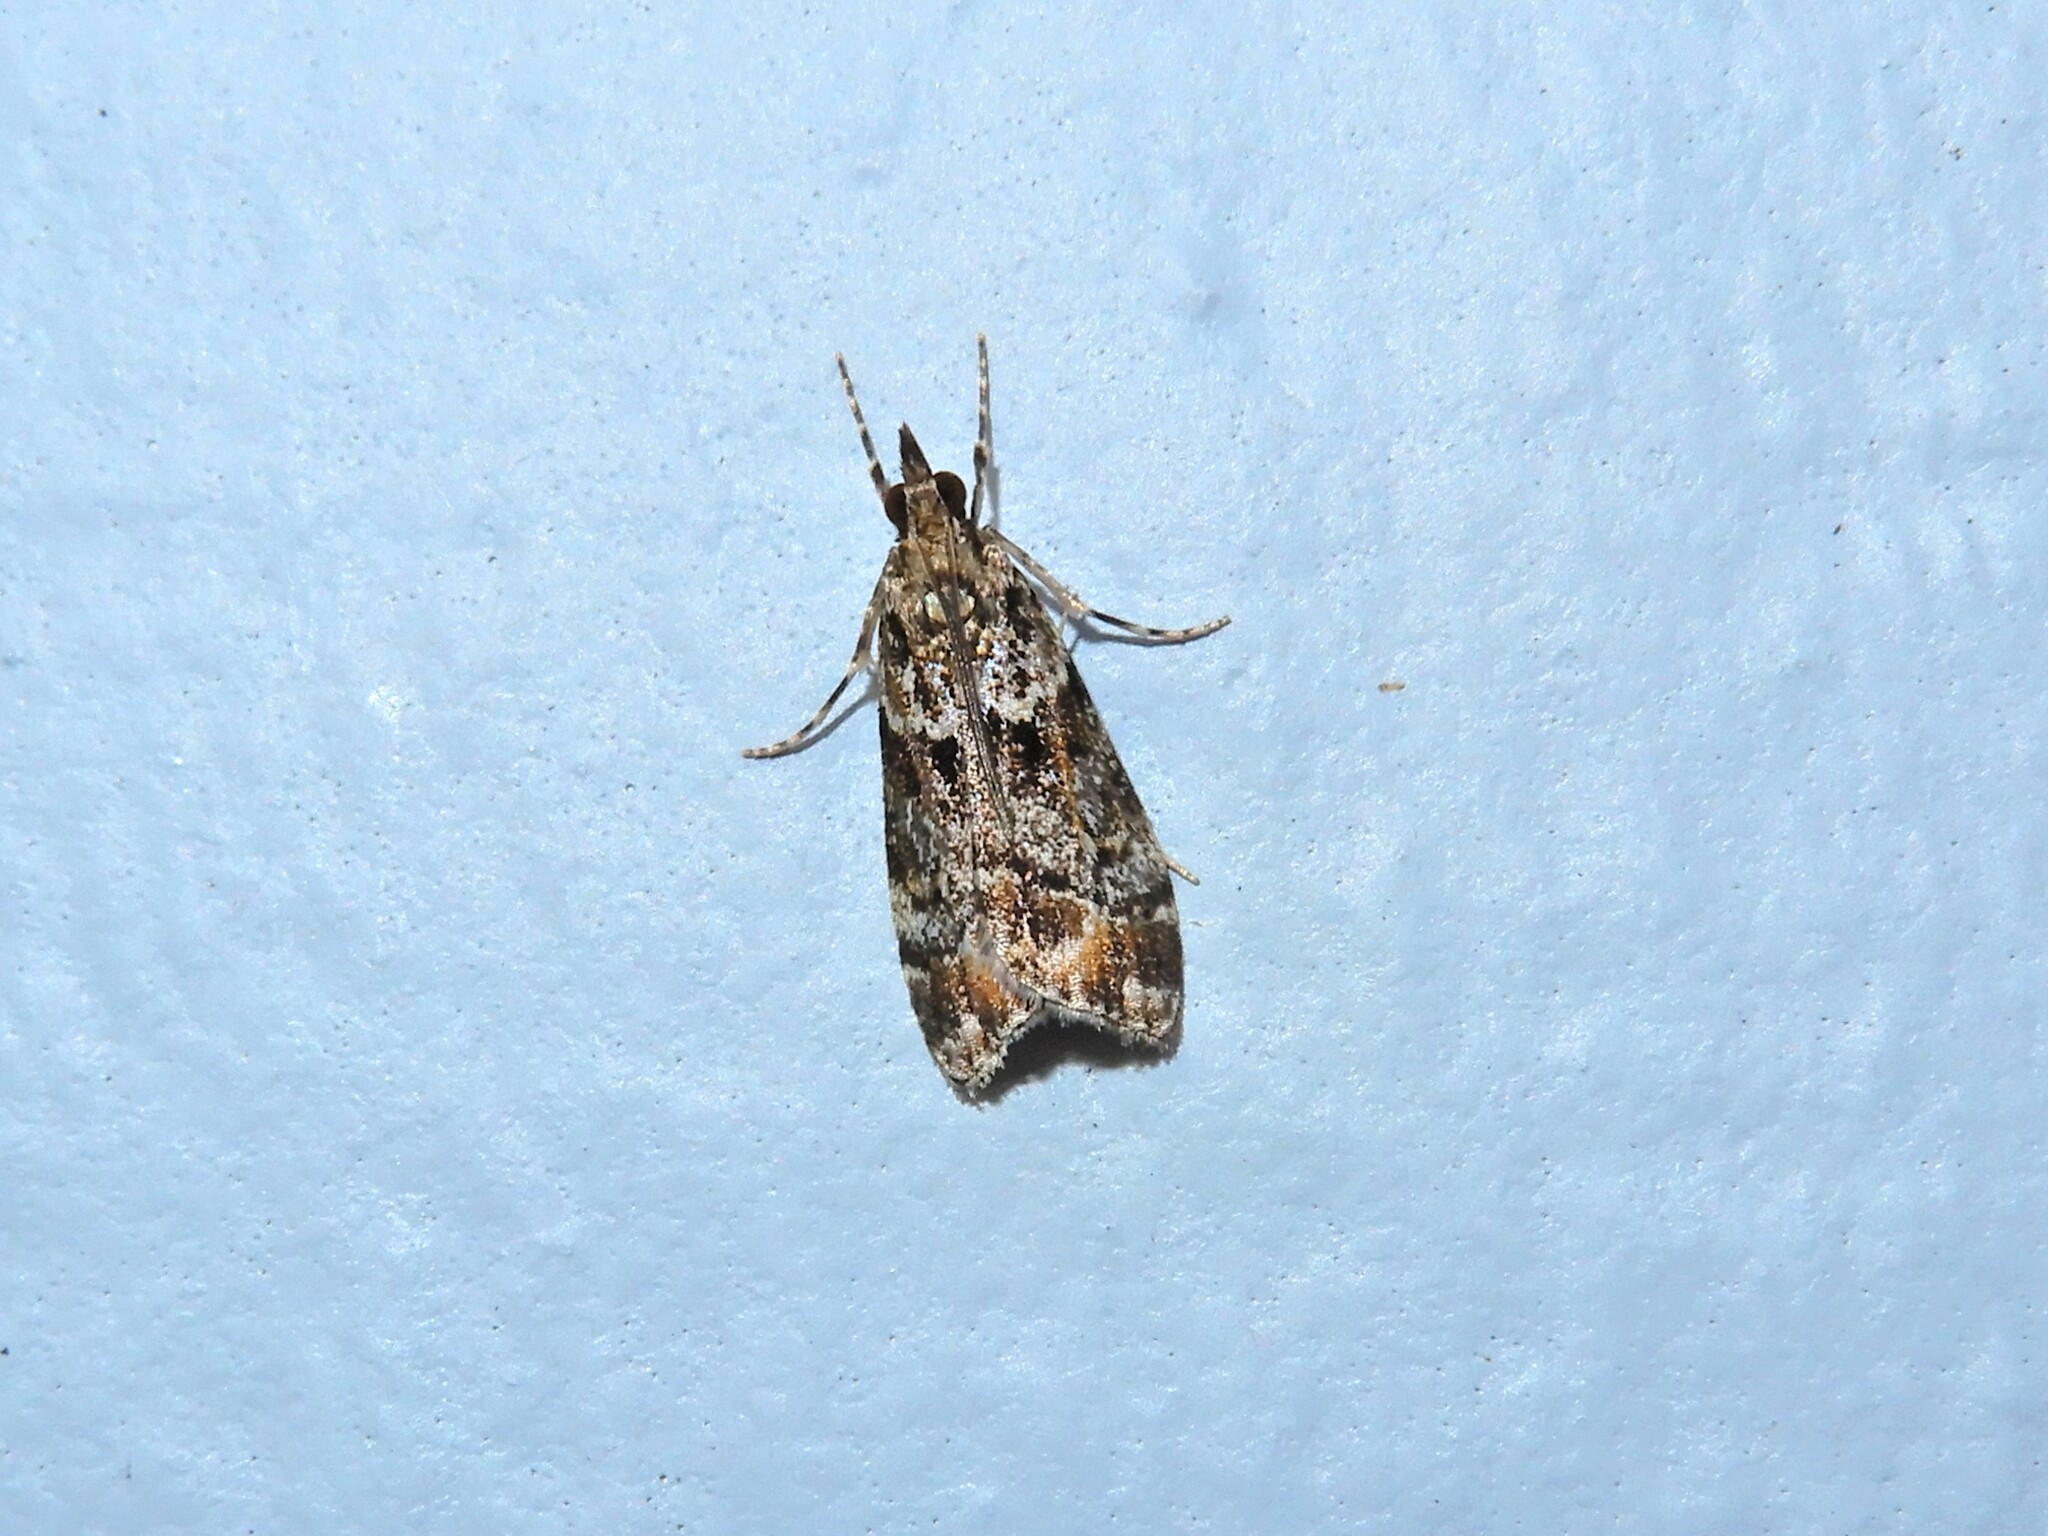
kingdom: Animalia
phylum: Arthropoda
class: Insecta
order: Lepidoptera
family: Crambidae
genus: Eudonia
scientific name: Eudonia minualis
